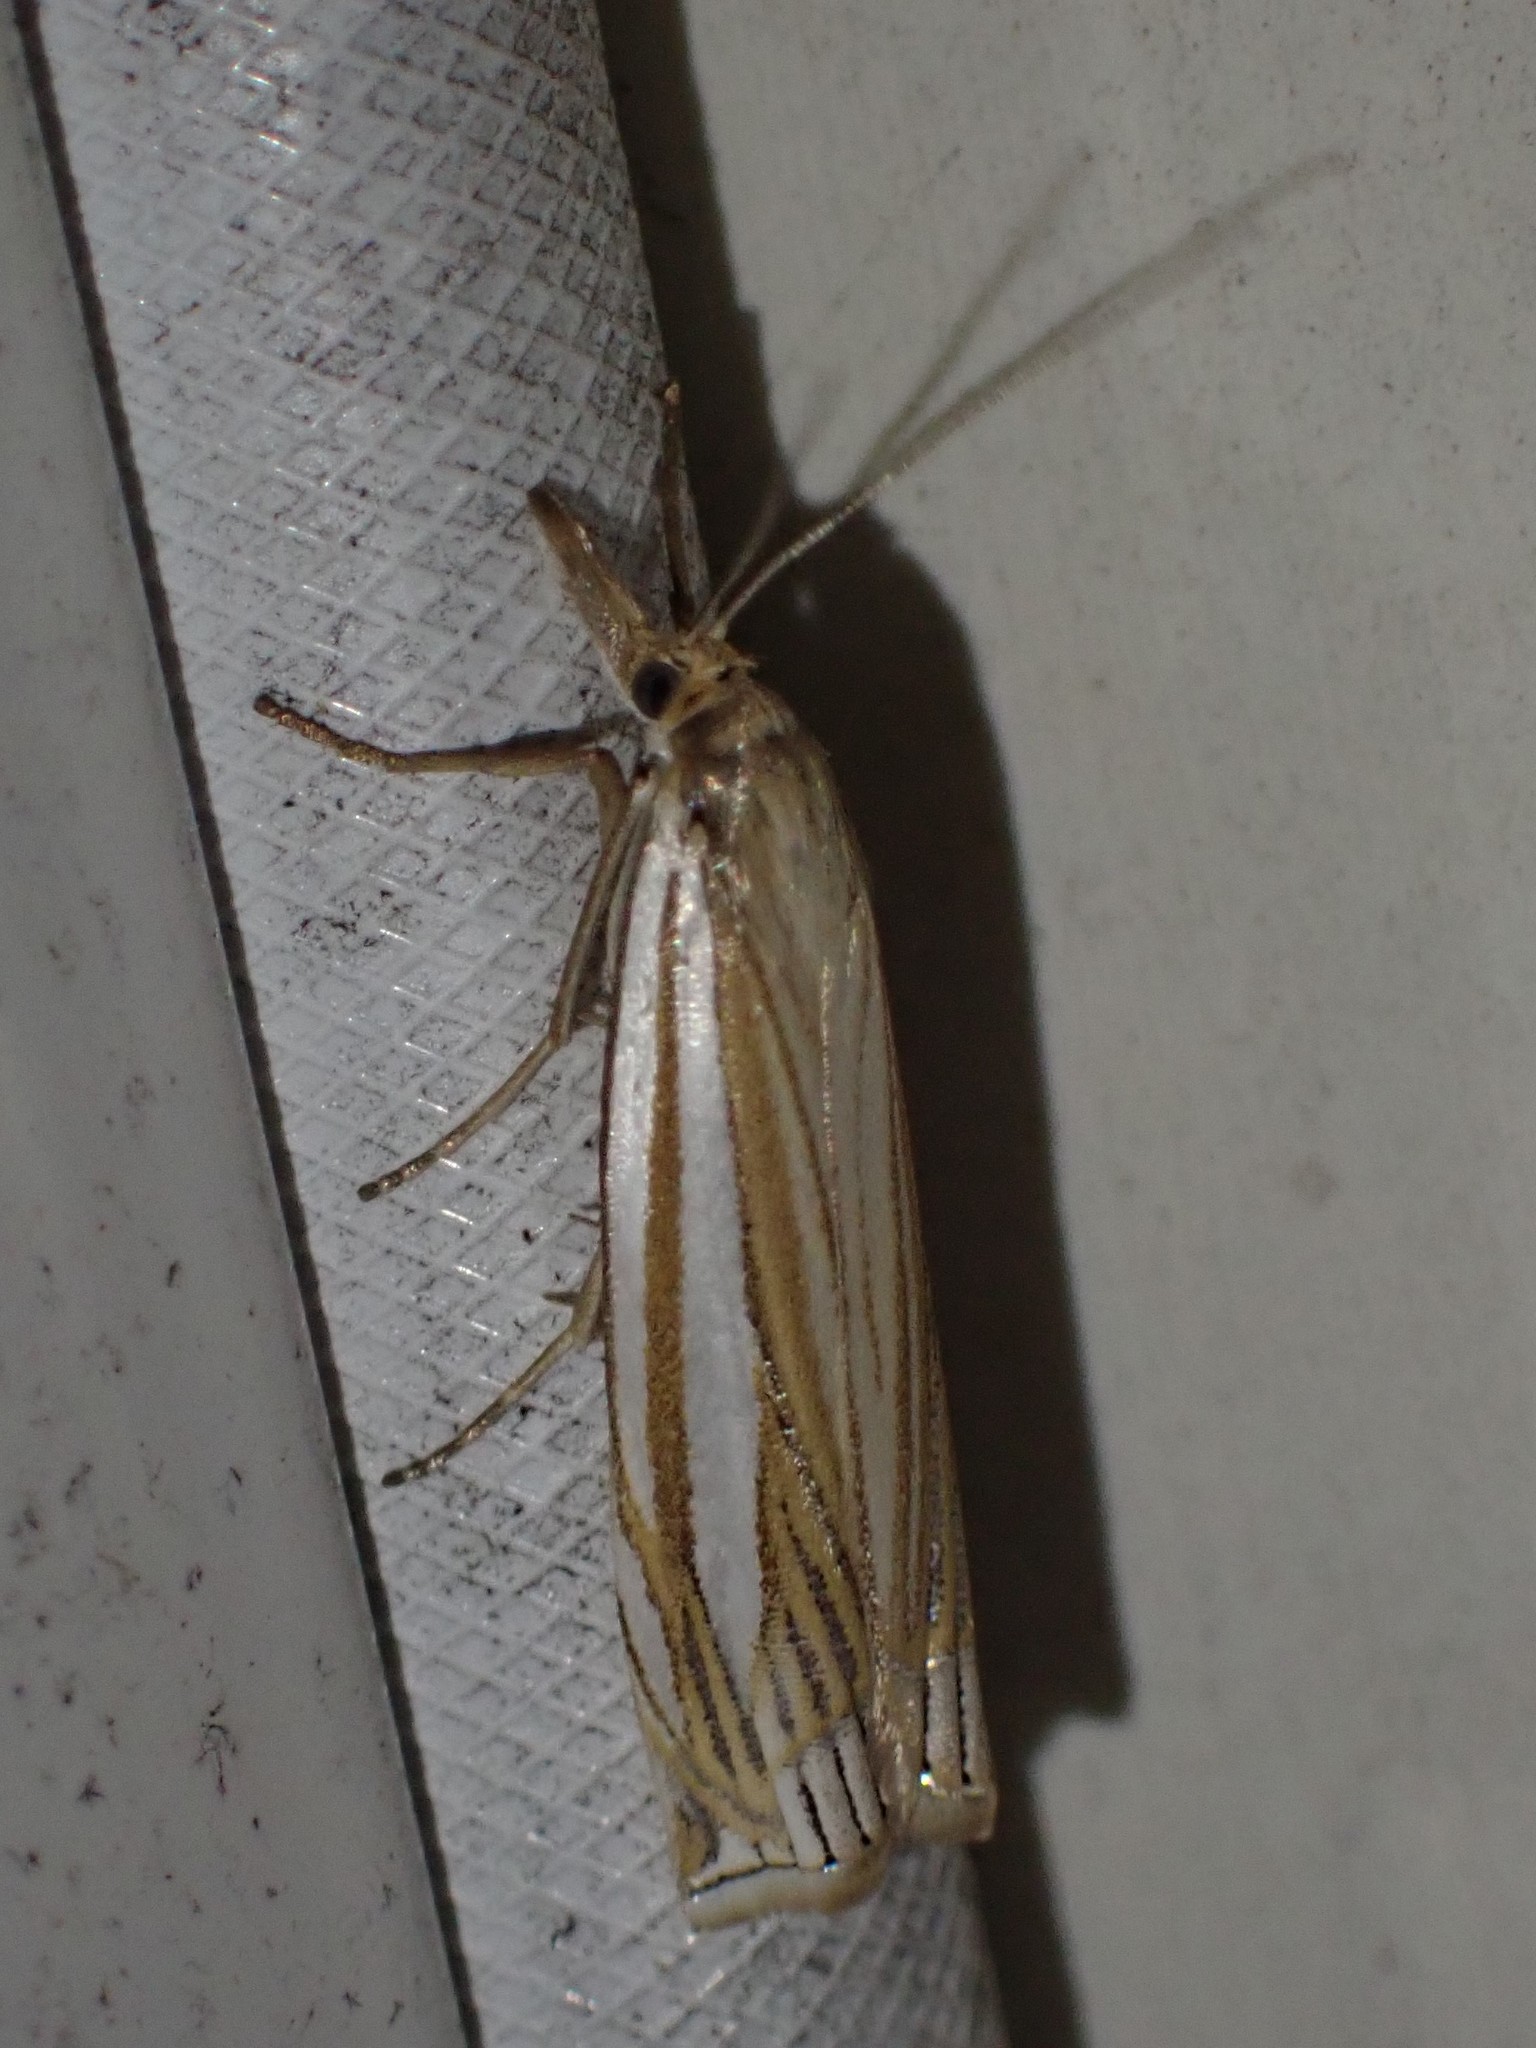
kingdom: Animalia
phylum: Arthropoda
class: Insecta
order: Lepidoptera
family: Crambidae
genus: Crambus
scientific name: Crambus laqueatellus
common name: Eastern grass-veneer
